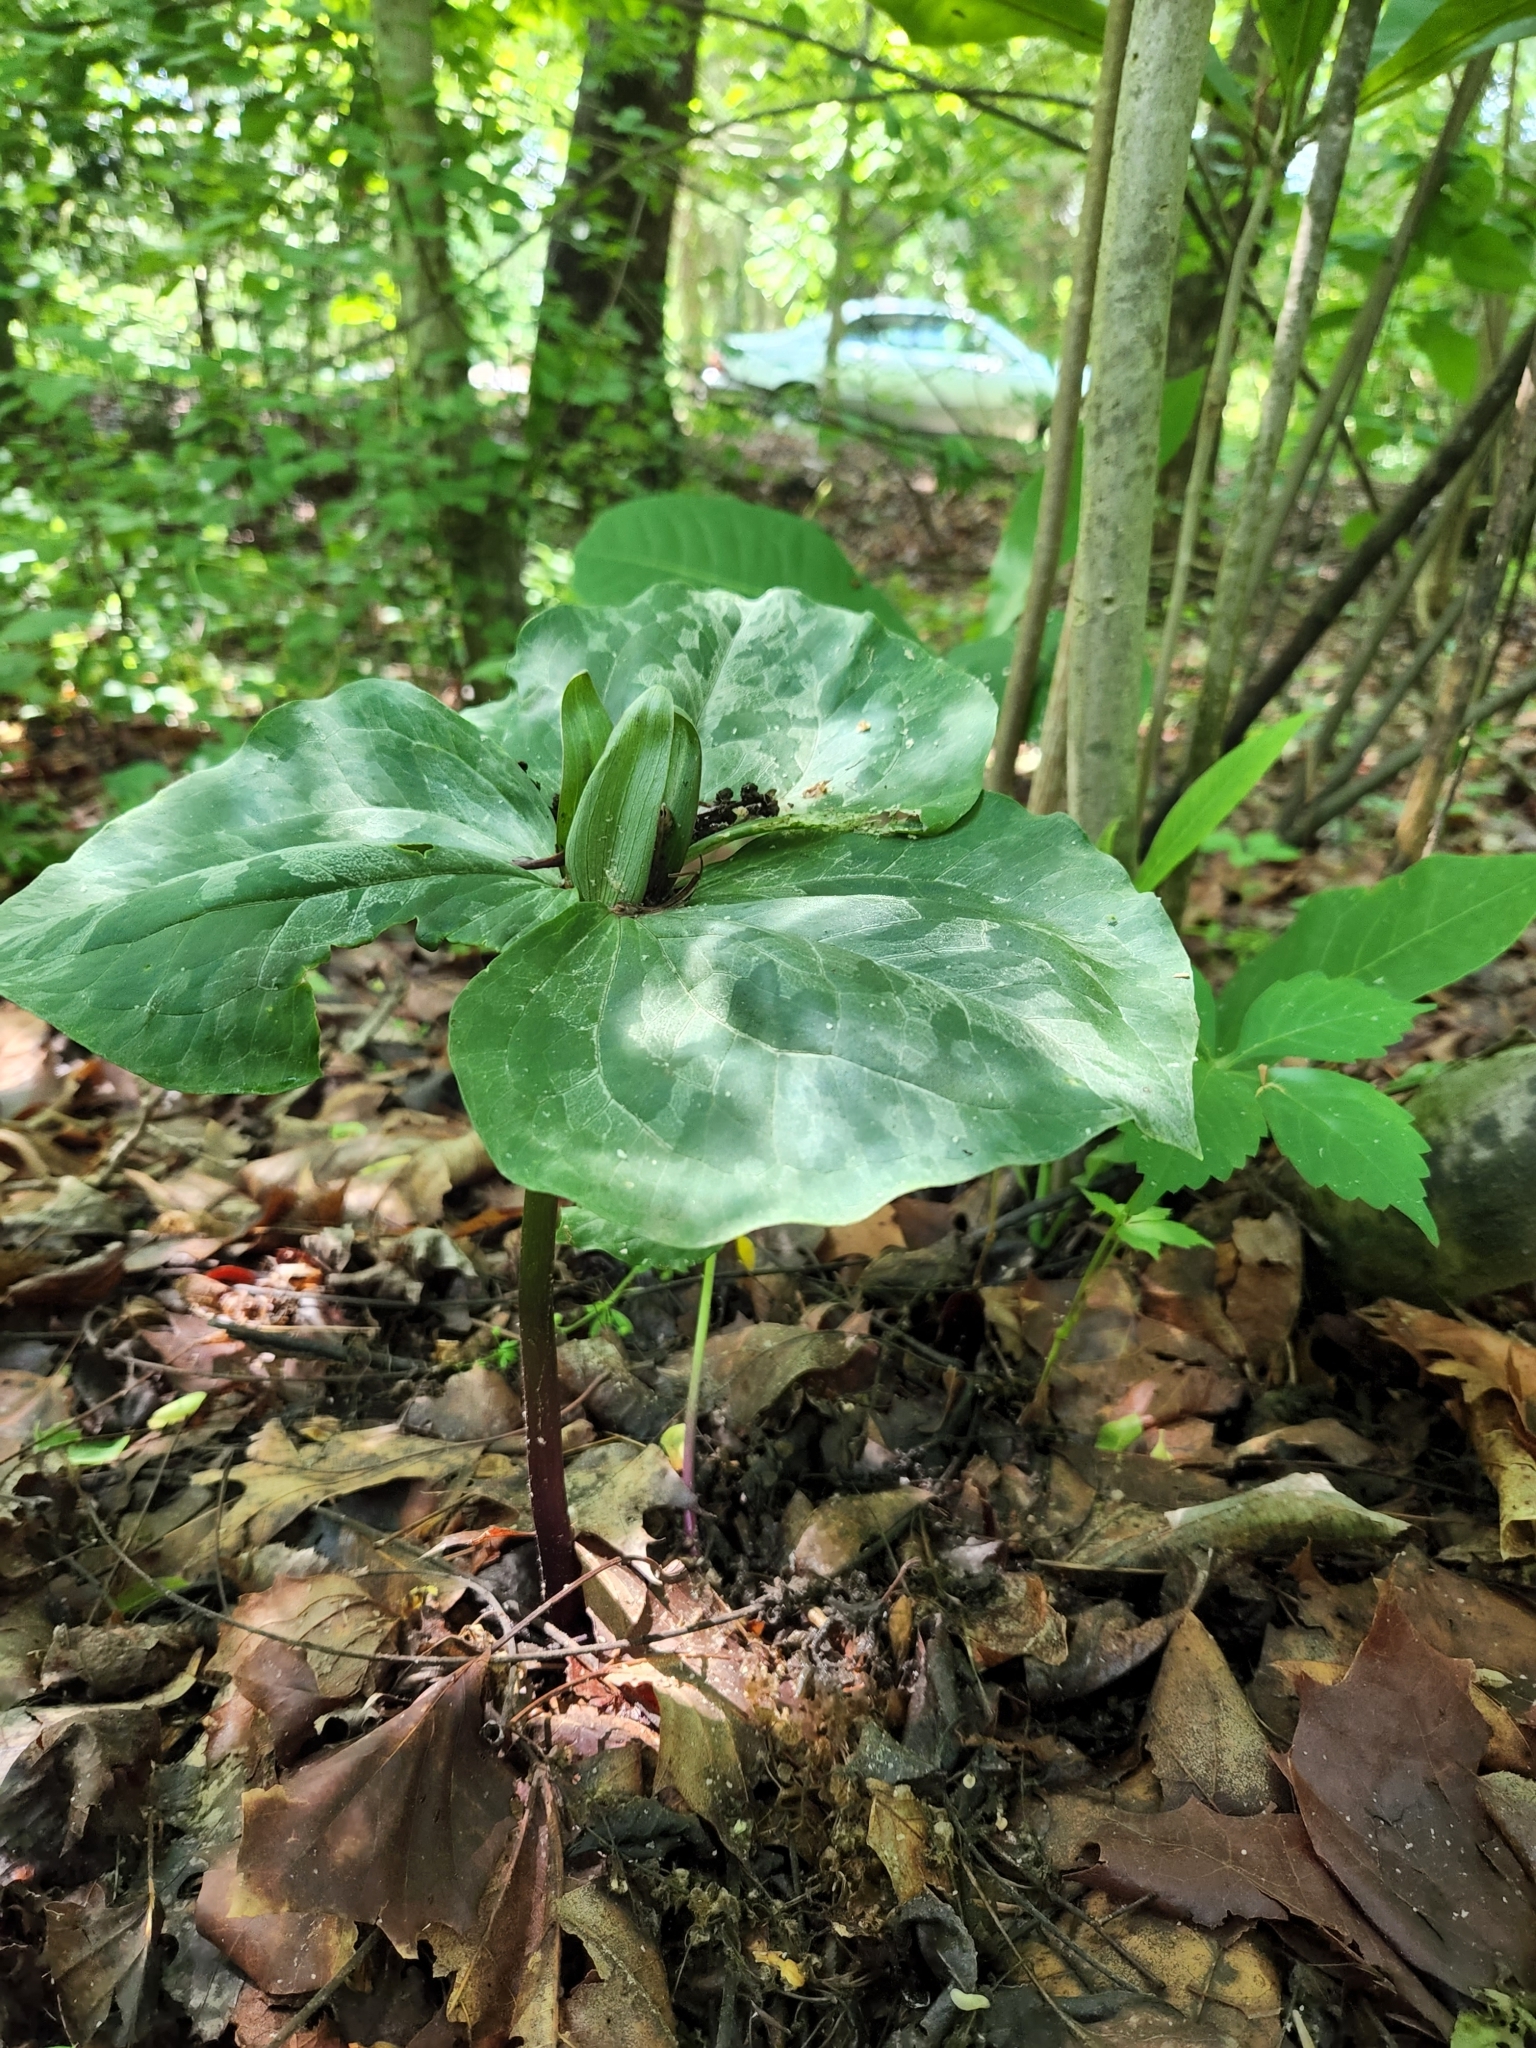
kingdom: Plantae
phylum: Tracheophyta
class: Liliopsida
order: Liliales
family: Melanthiaceae
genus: Trillium
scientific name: Trillium cuneatum
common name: Cuneate trillium
